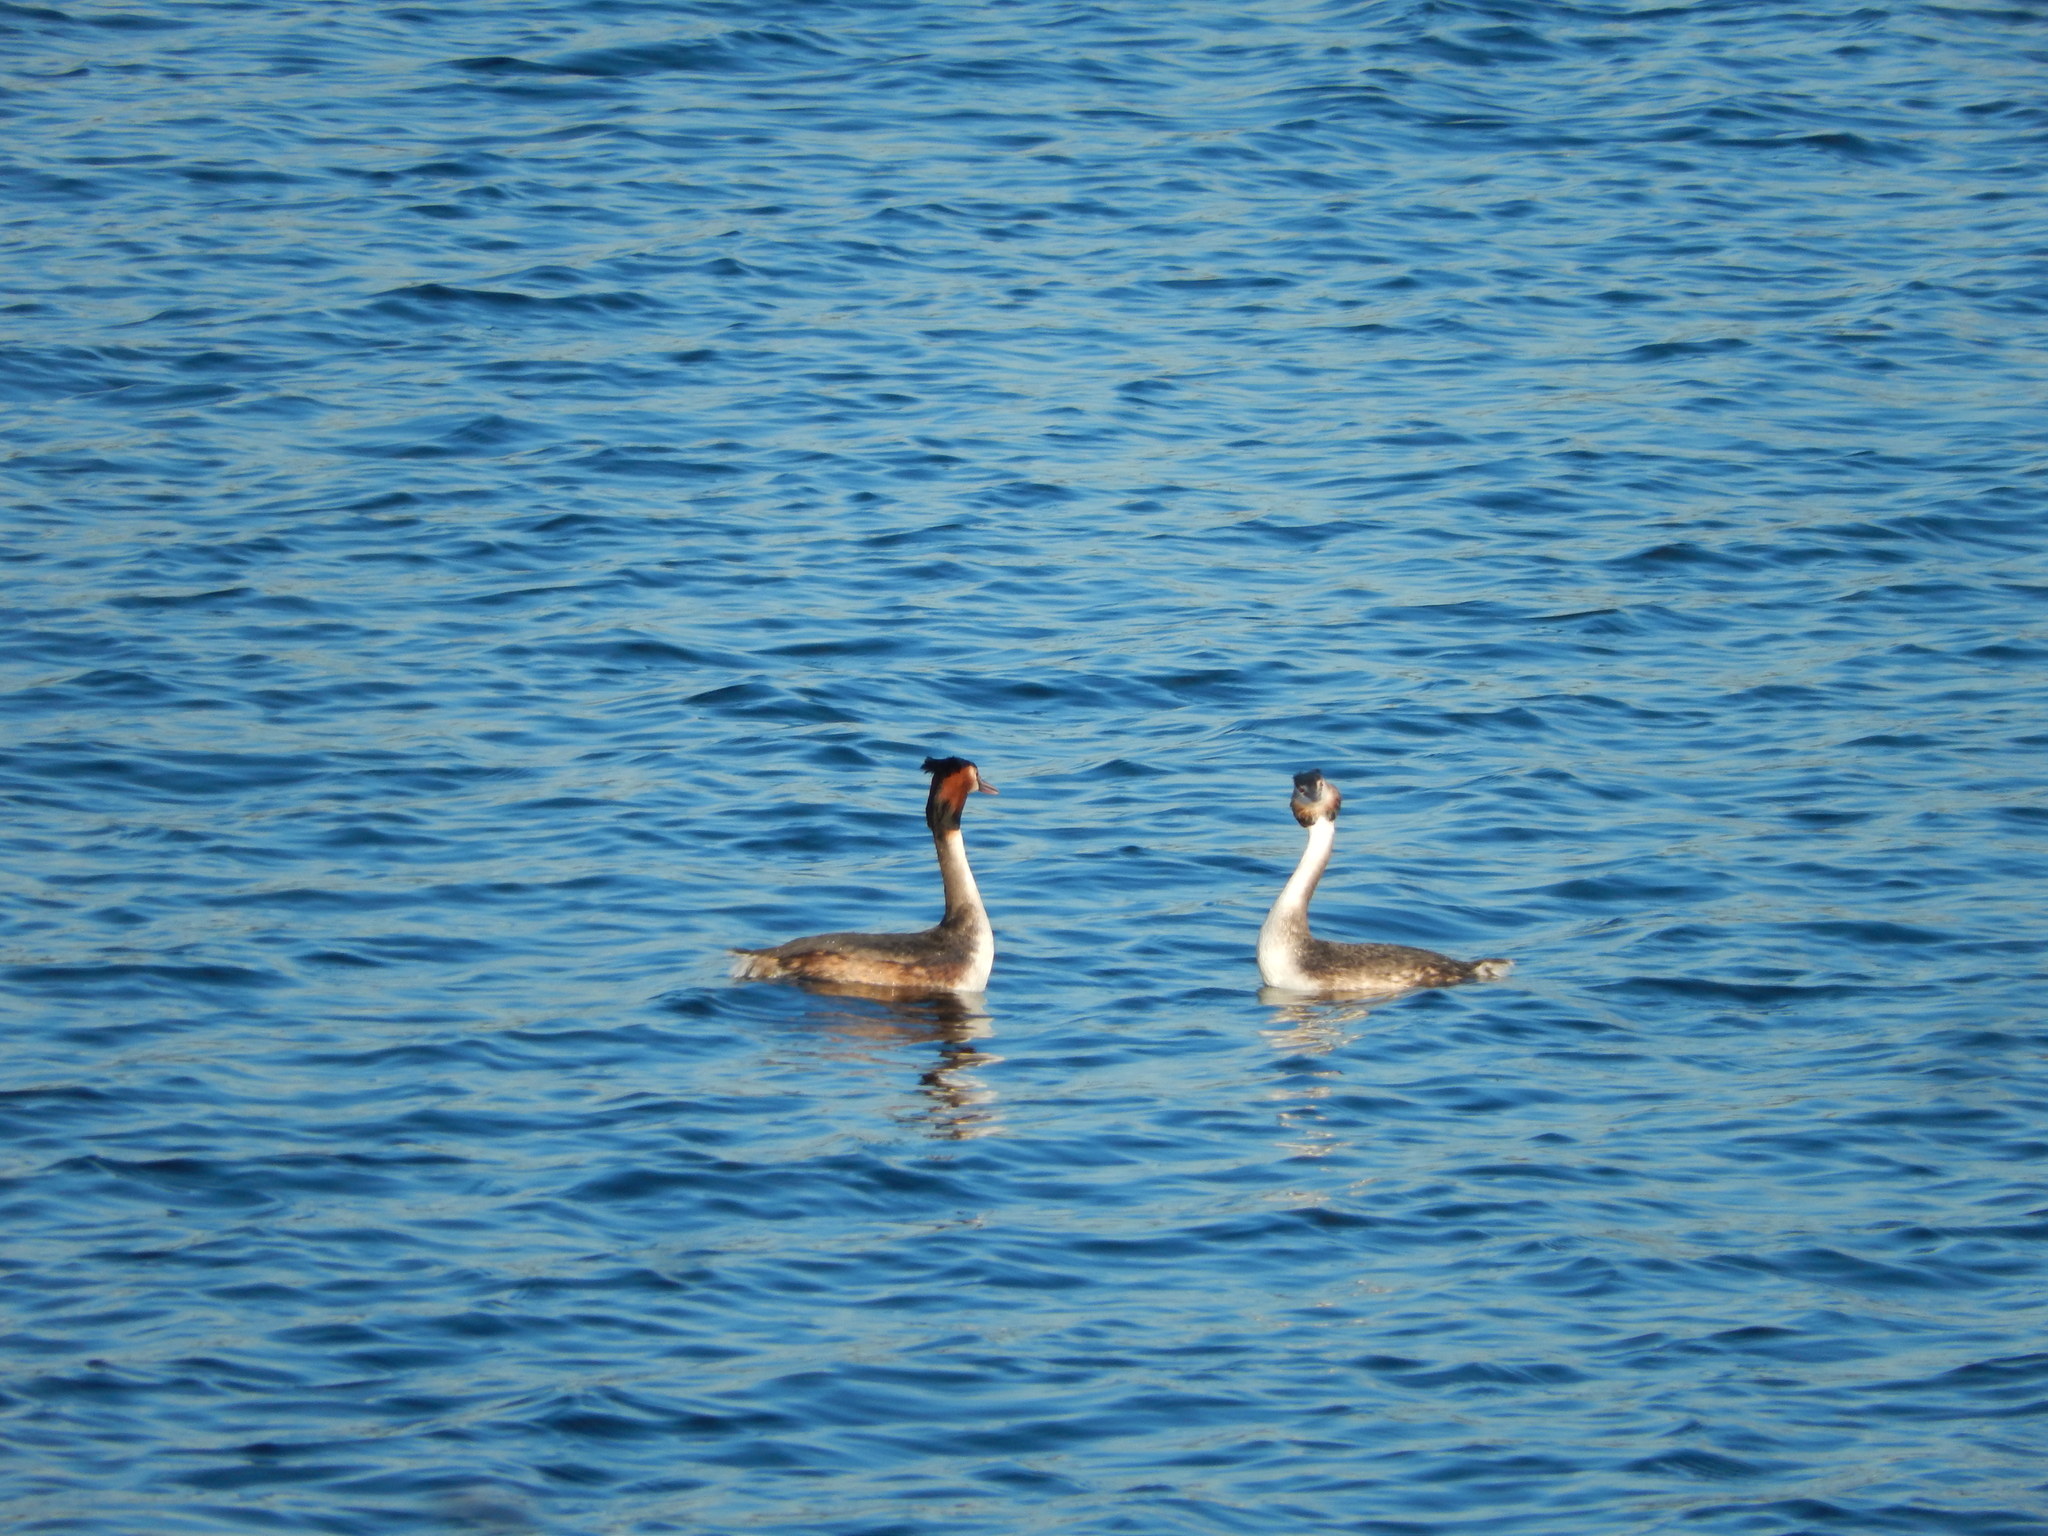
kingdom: Animalia
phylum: Chordata
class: Aves
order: Podicipediformes
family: Podicipedidae
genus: Podiceps
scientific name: Podiceps cristatus
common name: Great crested grebe
